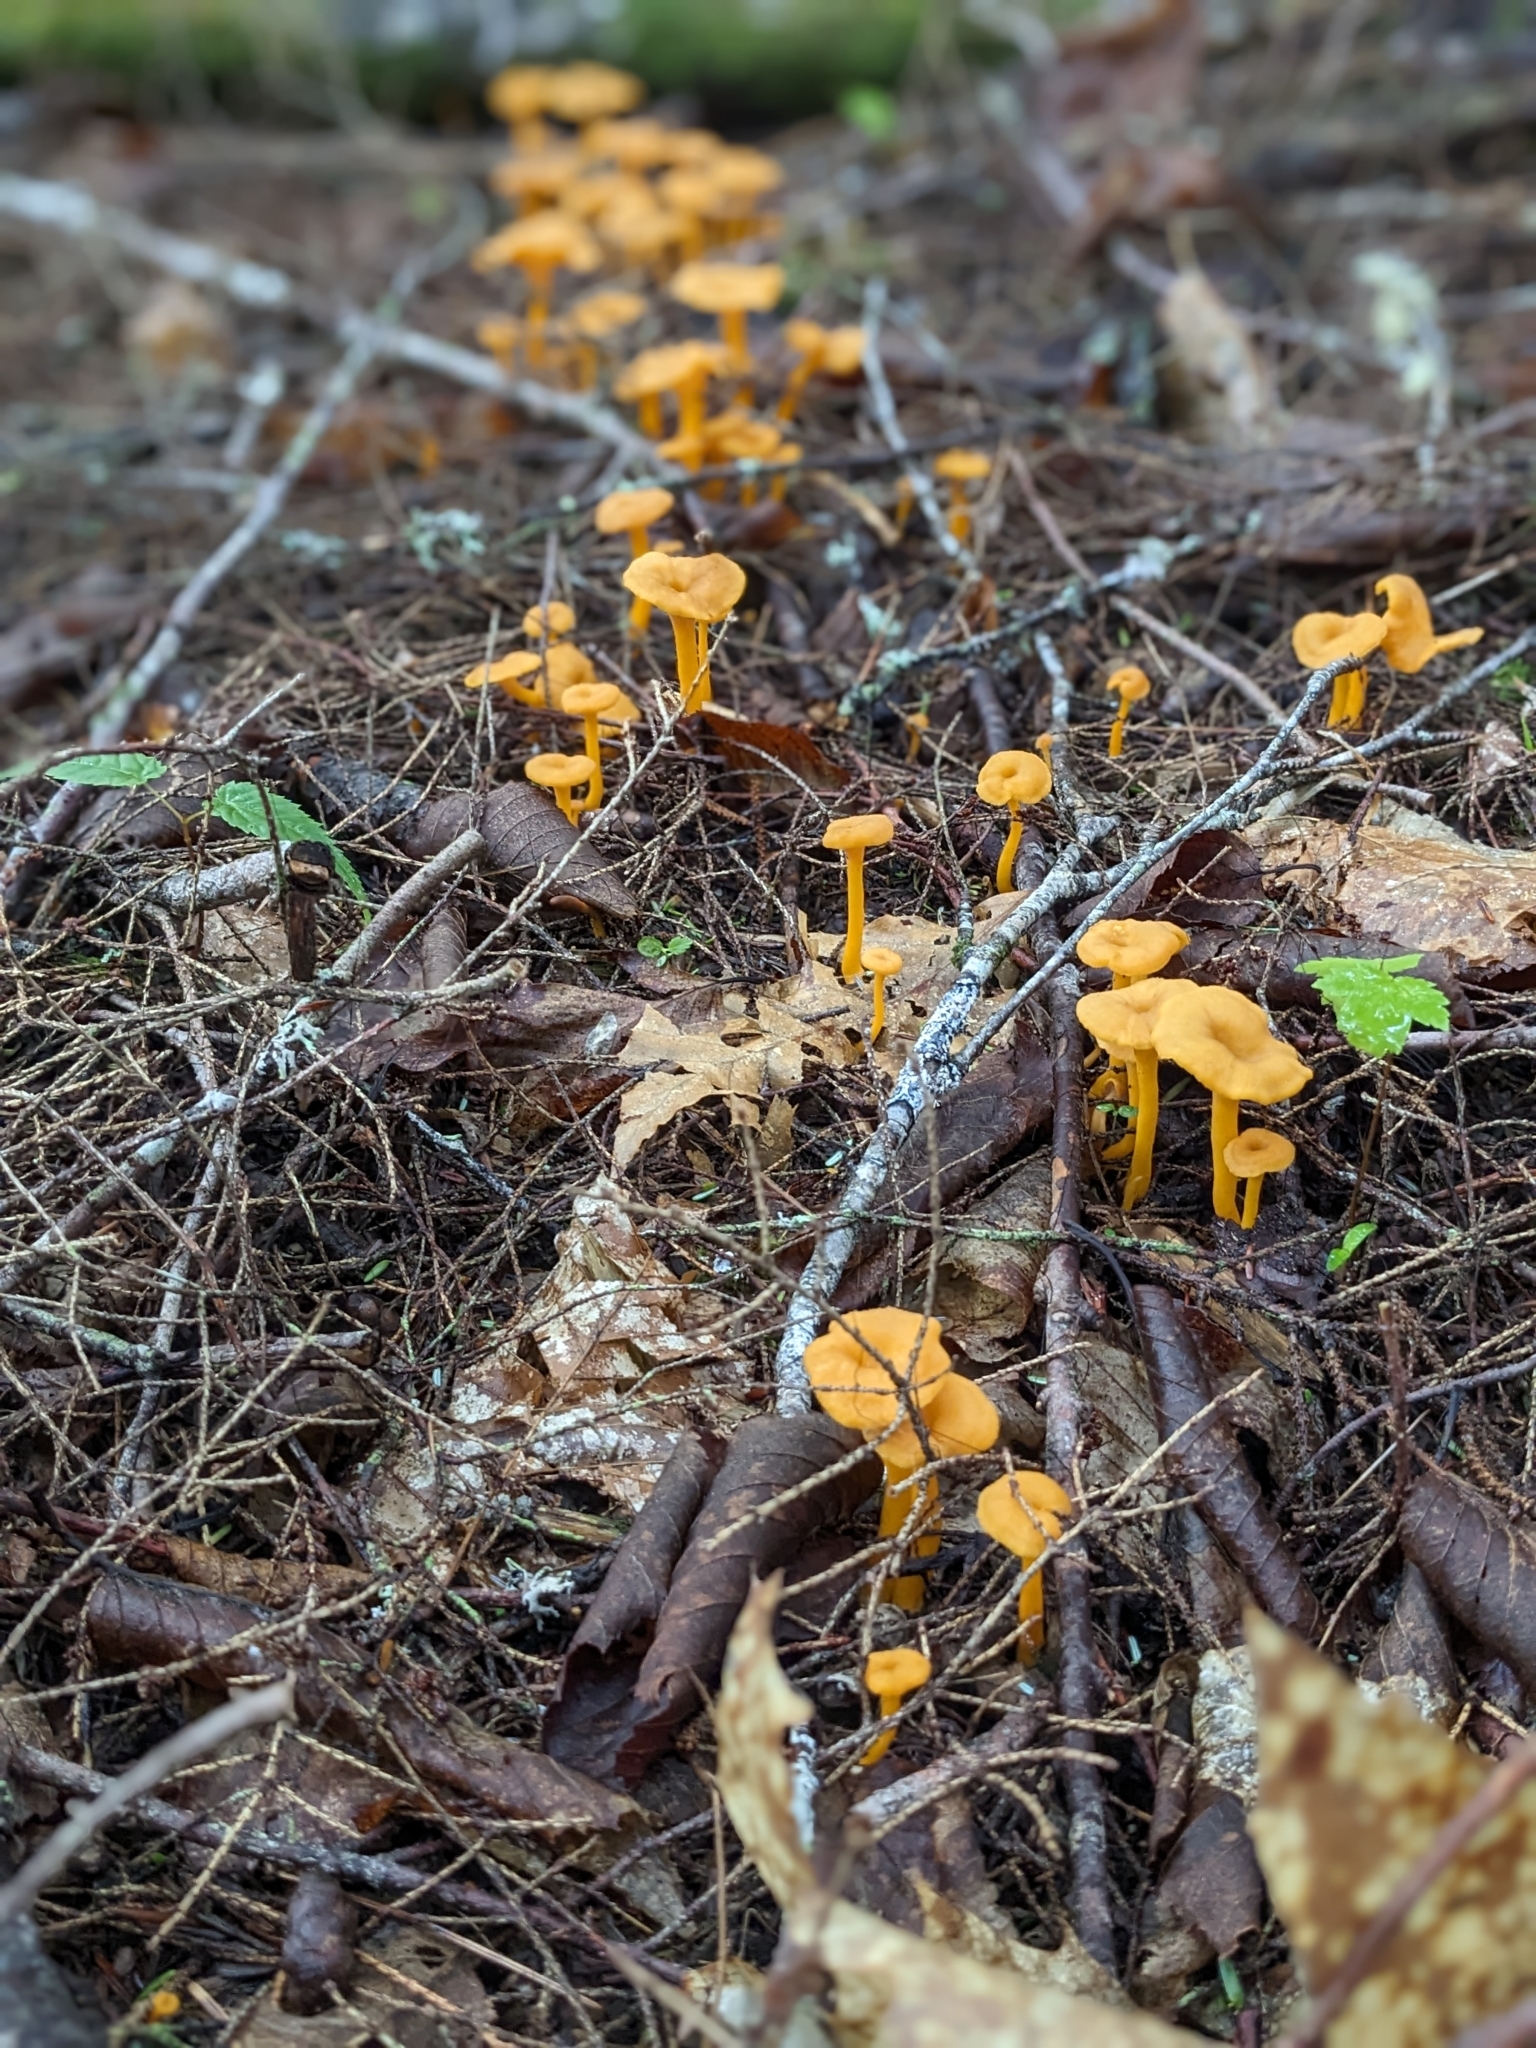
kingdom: Fungi
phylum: Basidiomycota
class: Agaricomycetes
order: Cantharellales
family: Hydnaceae
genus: Craterellus
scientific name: Craterellus ignicolor
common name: Flame chanterelle
